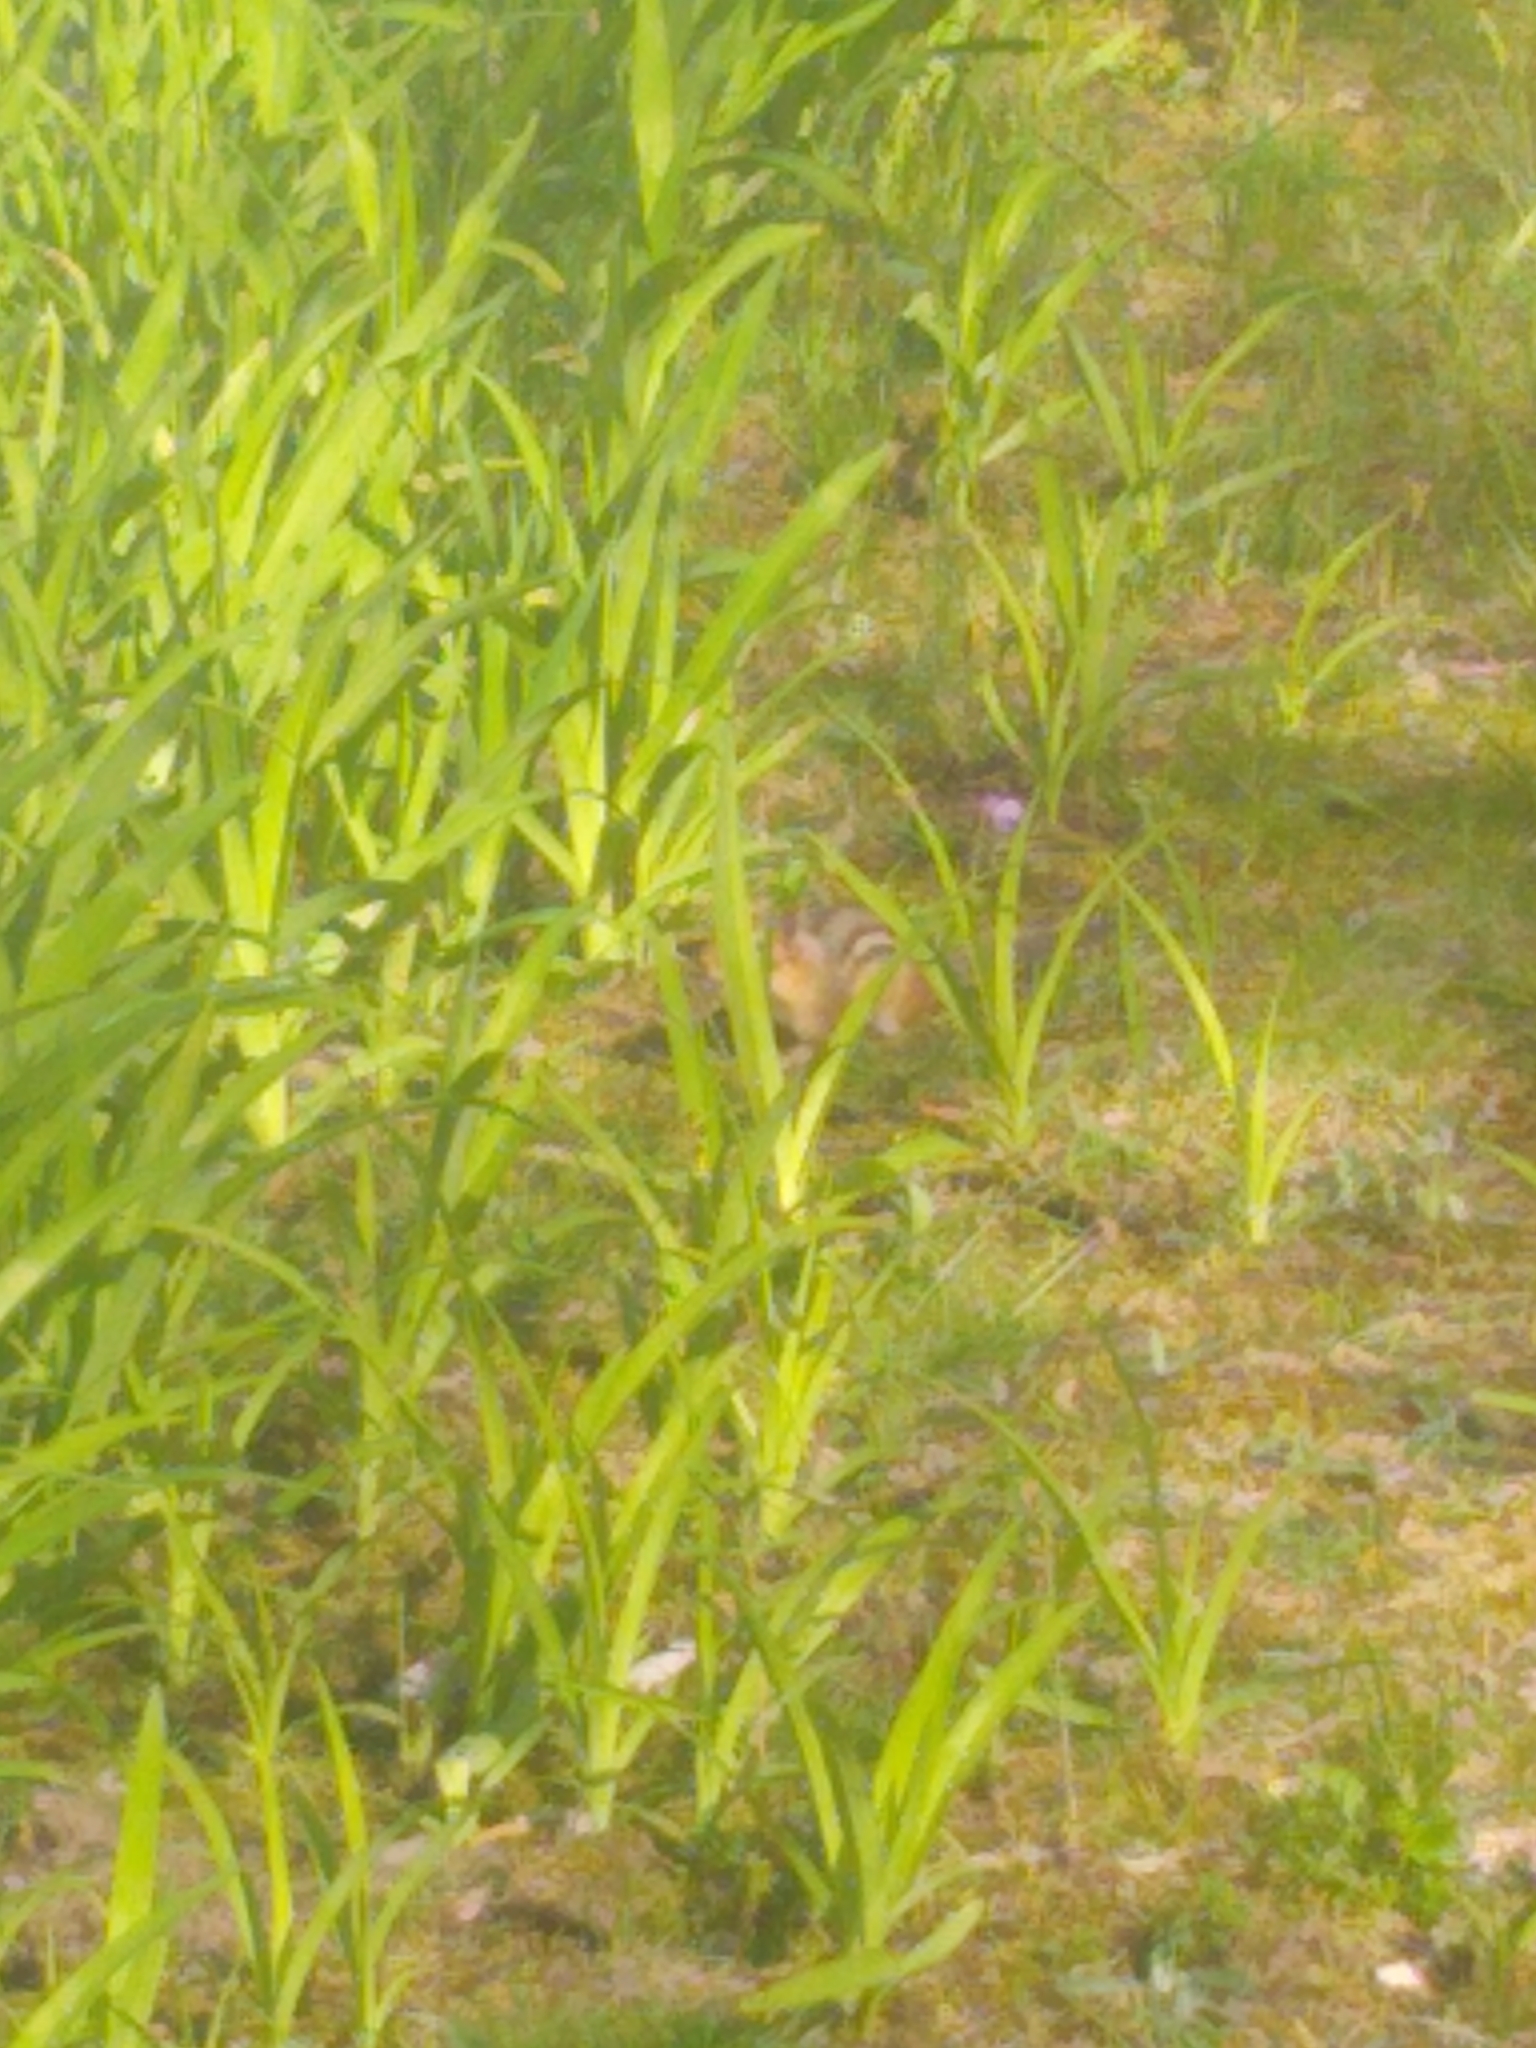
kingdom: Animalia
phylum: Chordata
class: Mammalia
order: Rodentia
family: Sciuridae
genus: Tamias
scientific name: Tamias striatus
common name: Eastern chipmunk
